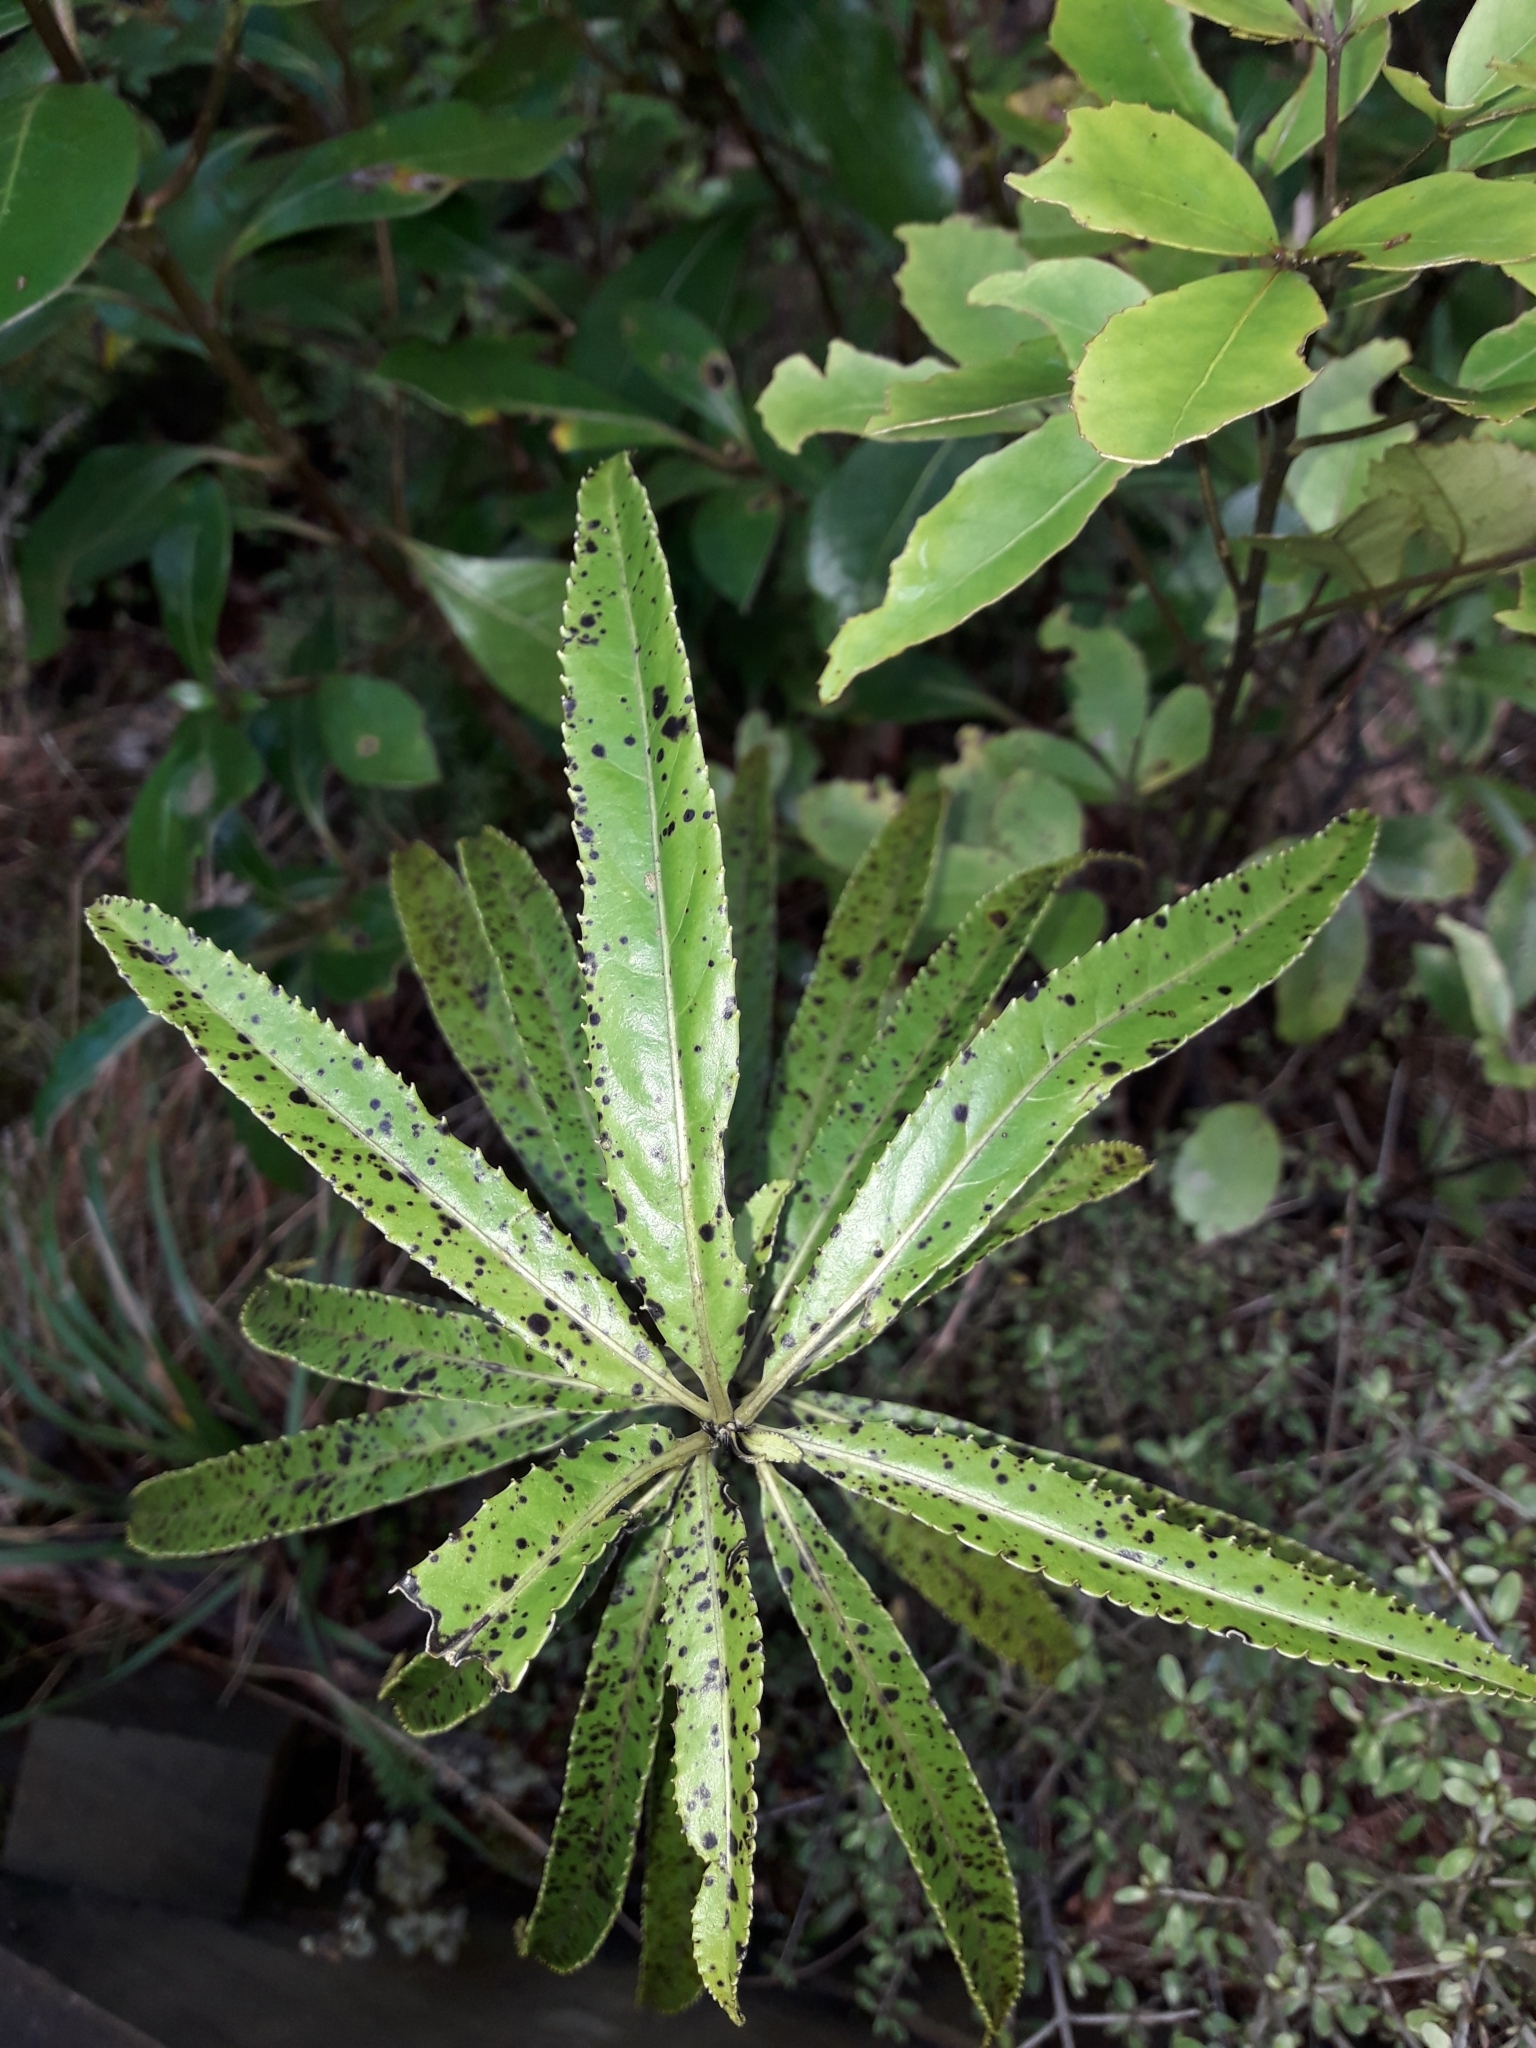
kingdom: Plantae
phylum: Tracheophyta
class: Magnoliopsida
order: Malpighiales
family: Violaceae
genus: Melicytus
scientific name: Melicytus lanceolatus
